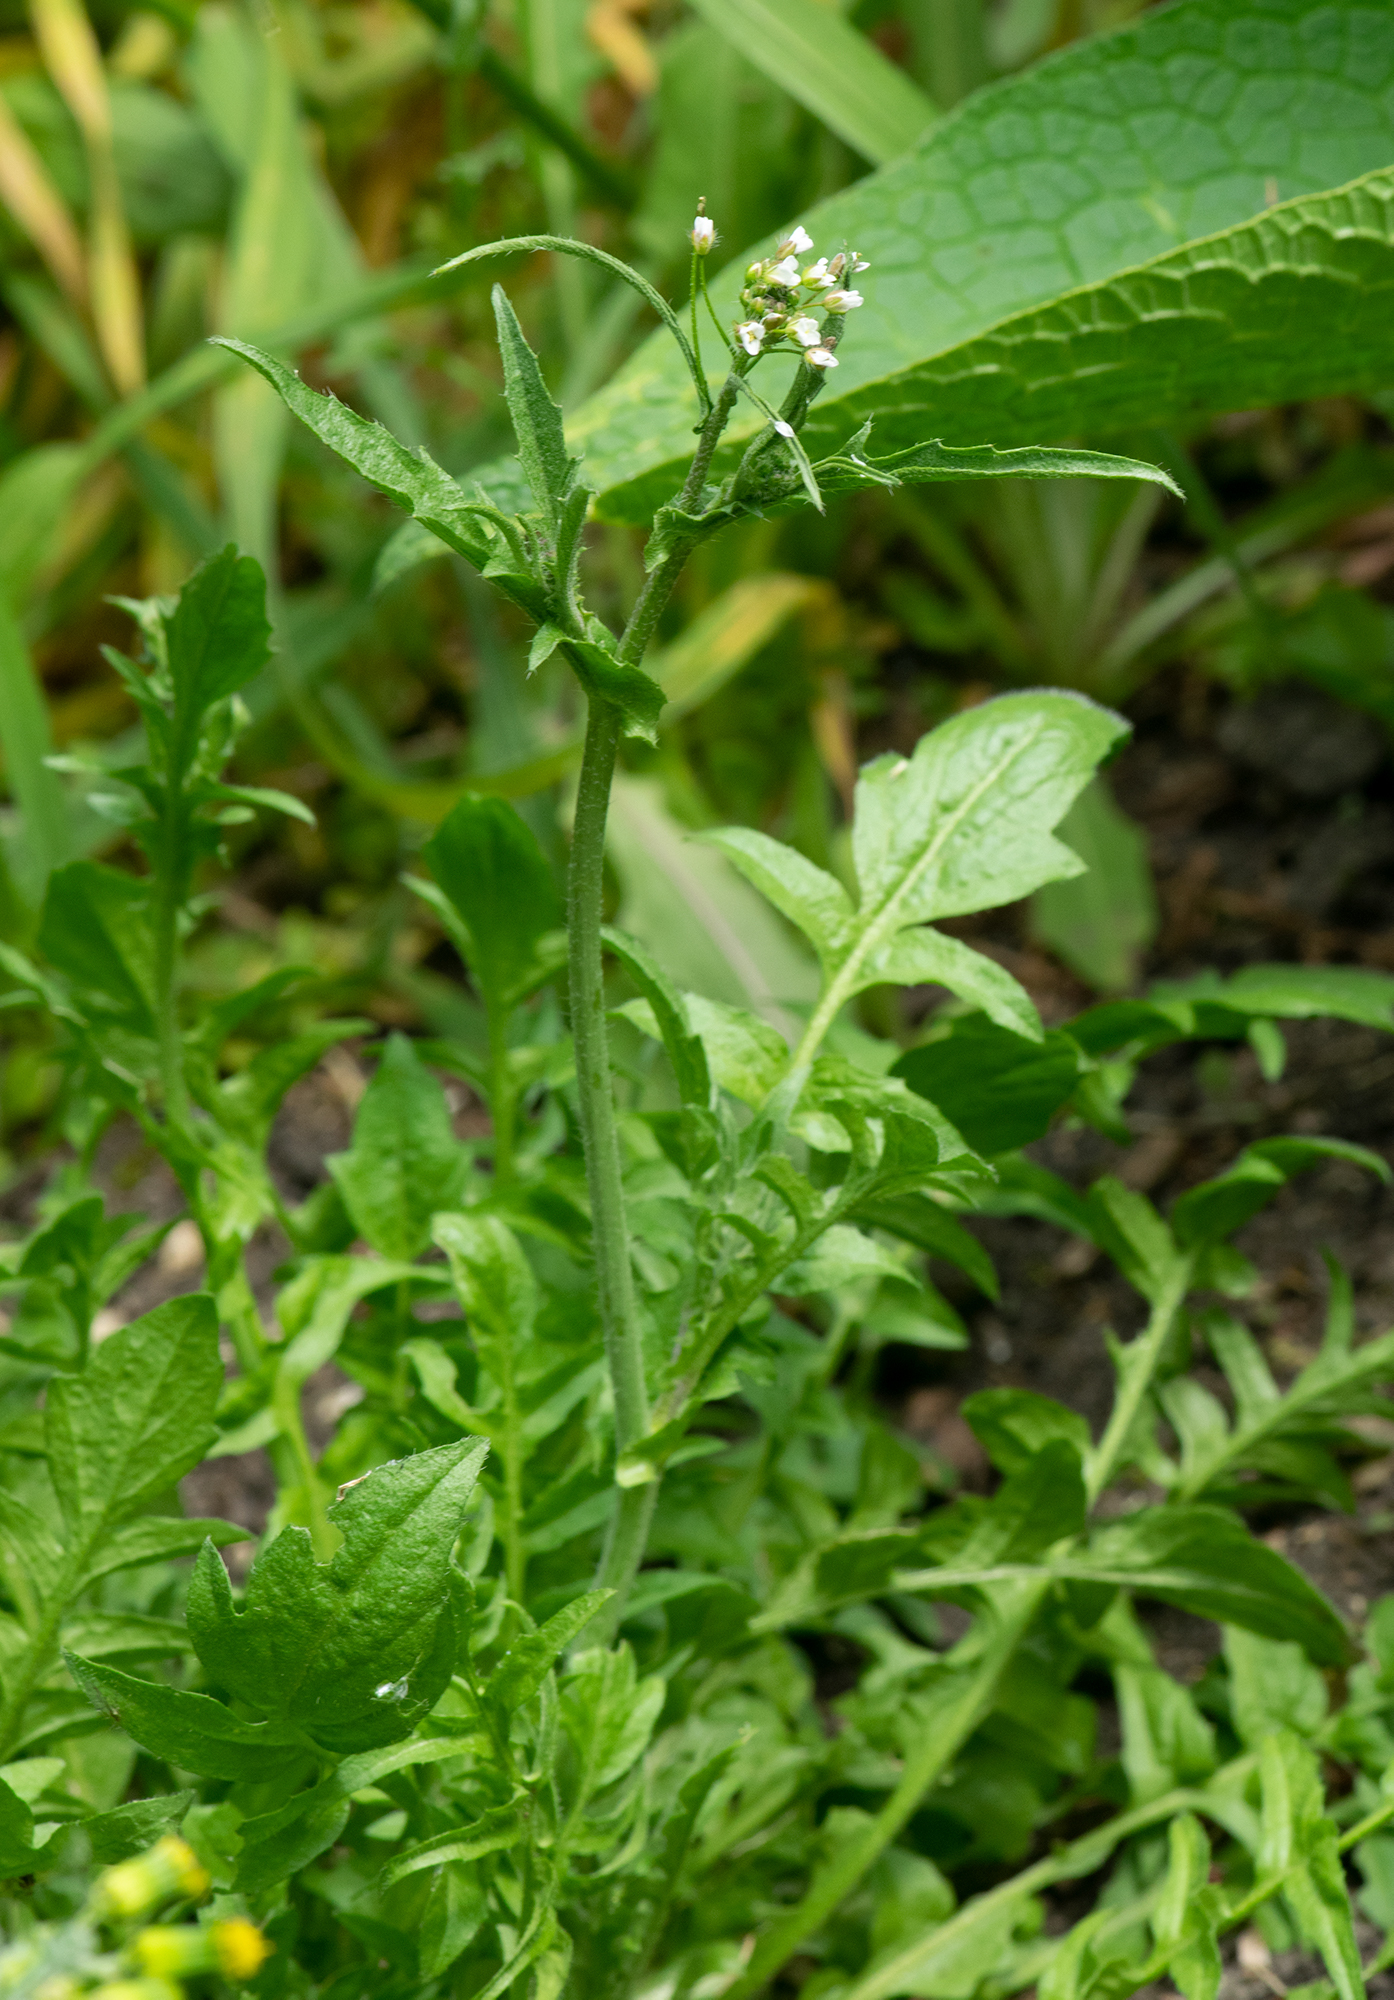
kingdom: Plantae
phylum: Tracheophyta
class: Magnoliopsida
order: Brassicales
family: Brassicaceae
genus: Capsella
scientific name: Capsella bursa-pastoris
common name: Shepherd's purse
